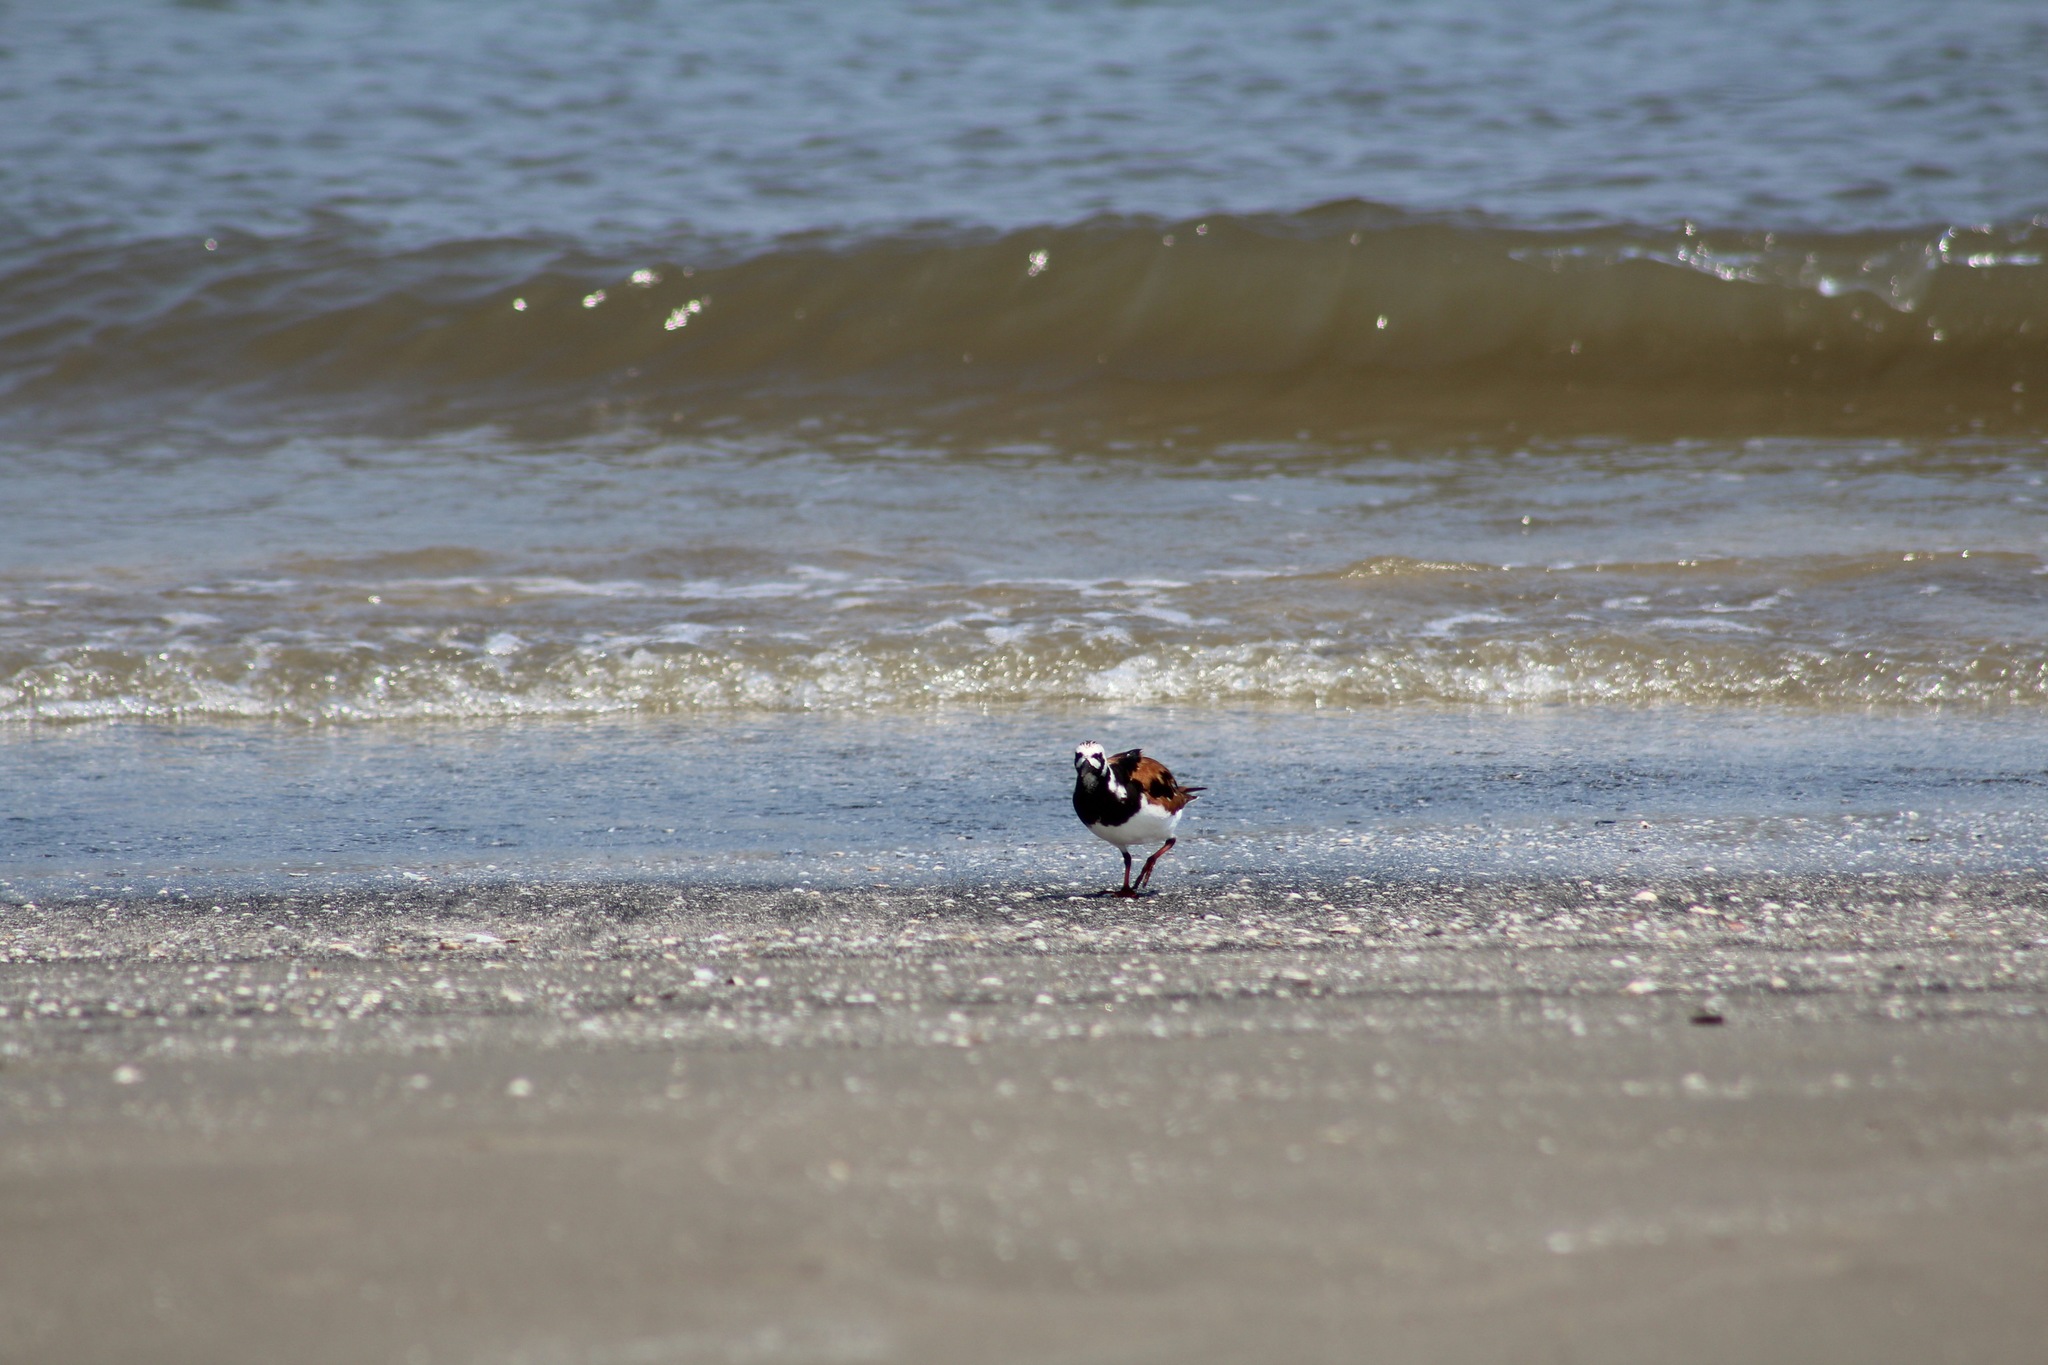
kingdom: Animalia
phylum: Chordata
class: Aves
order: Charadriiformes
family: Scolopacidae
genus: Arenaria
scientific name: Arenaria interpres
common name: Ruddy turnstone
